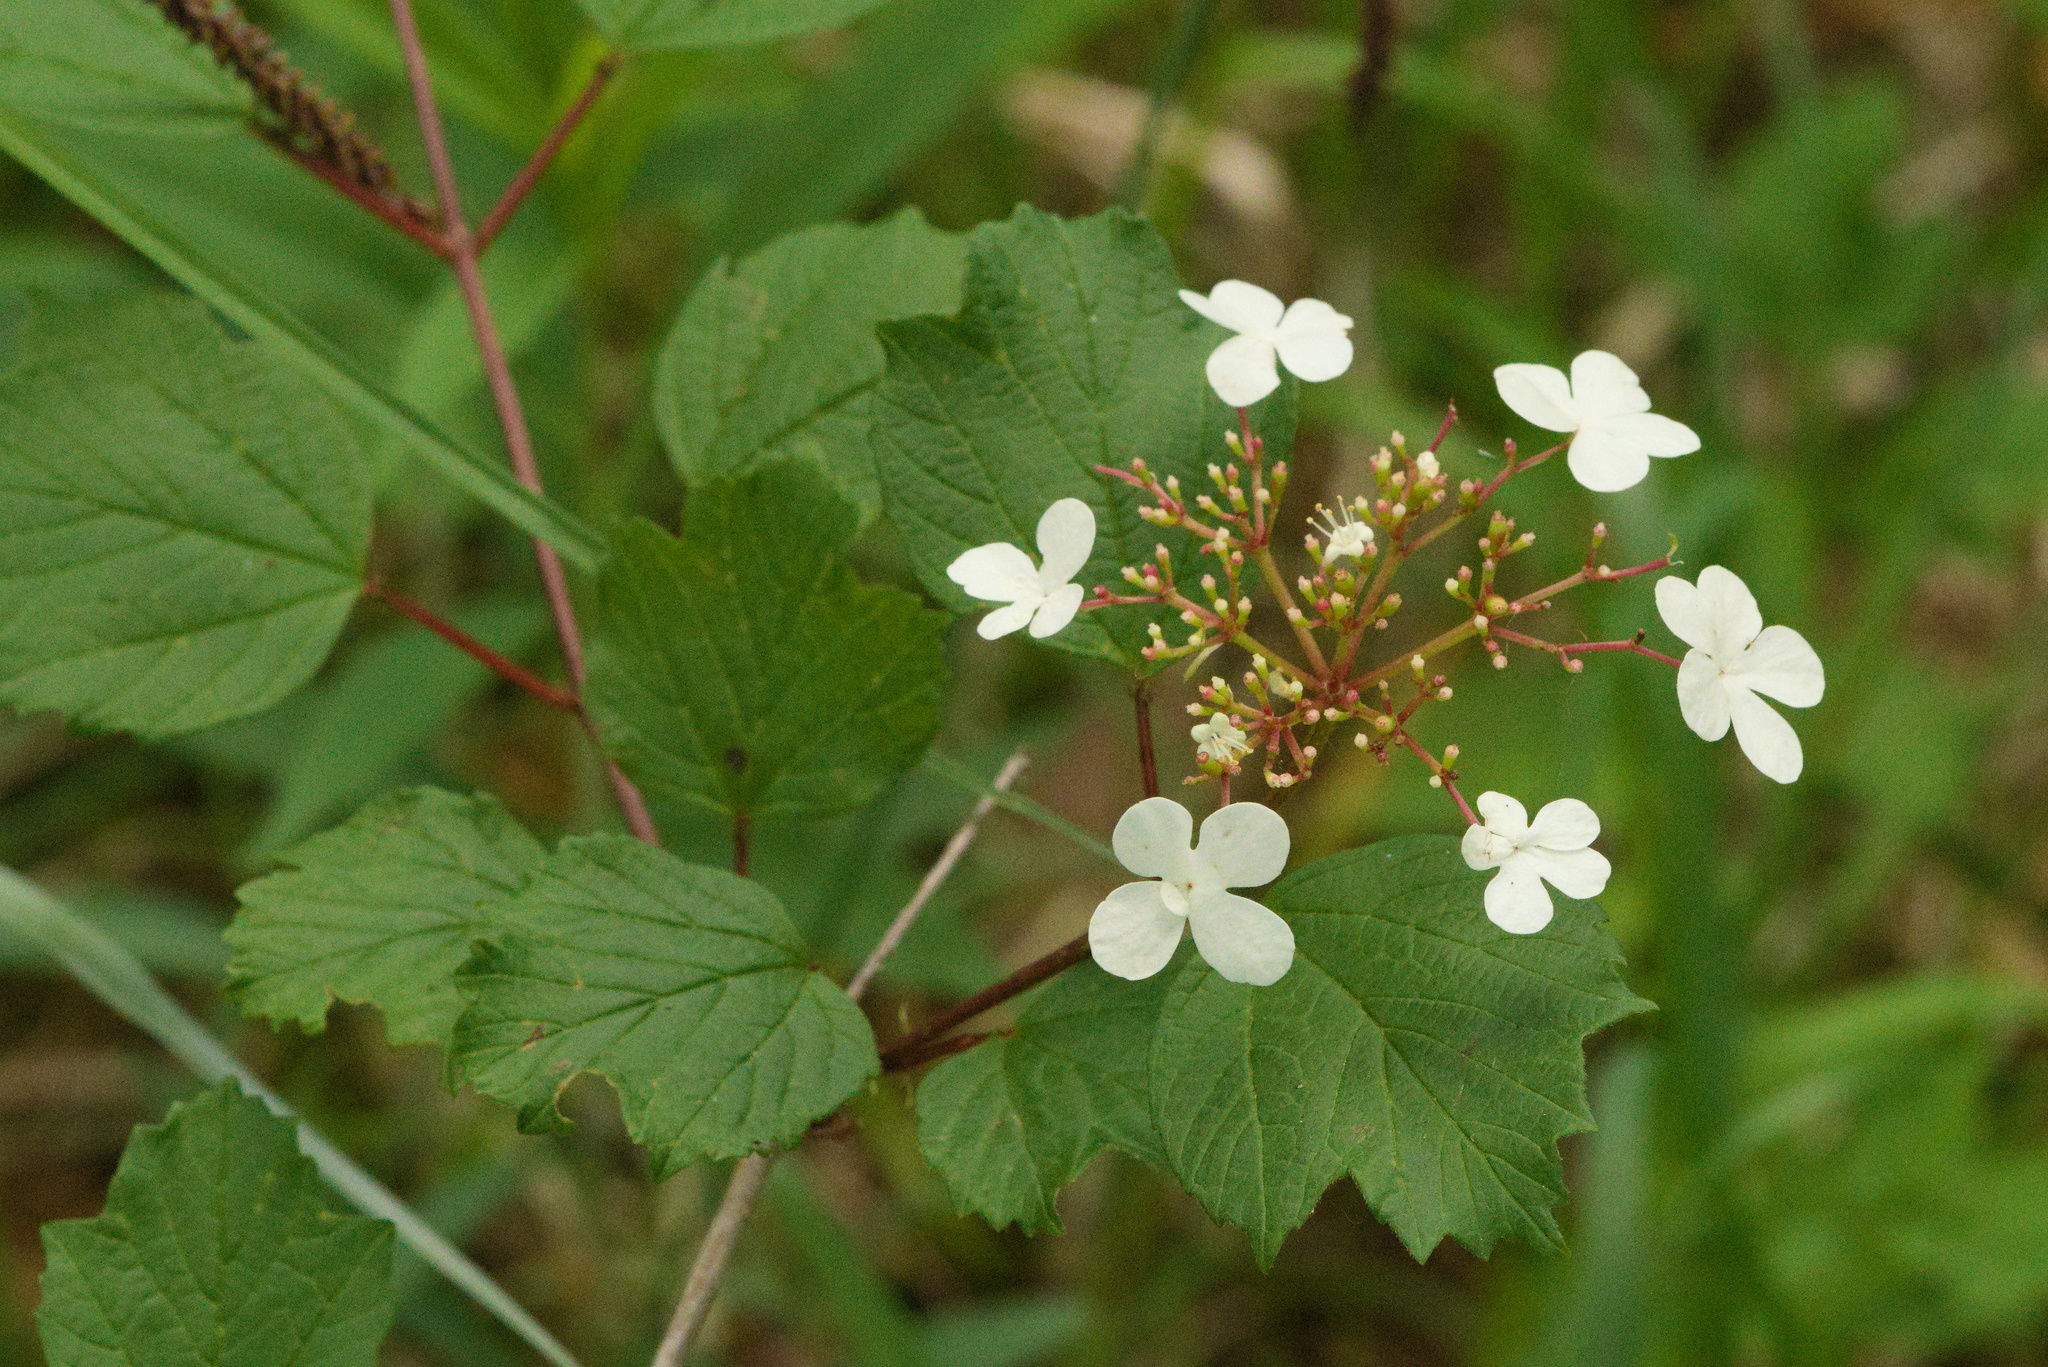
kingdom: Plantae
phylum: Tracheophyta
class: Magnoliopsida
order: Dipsacales
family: Viburnaceae
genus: Viburnum
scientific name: Viburnum opulus
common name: Guelder-rose
